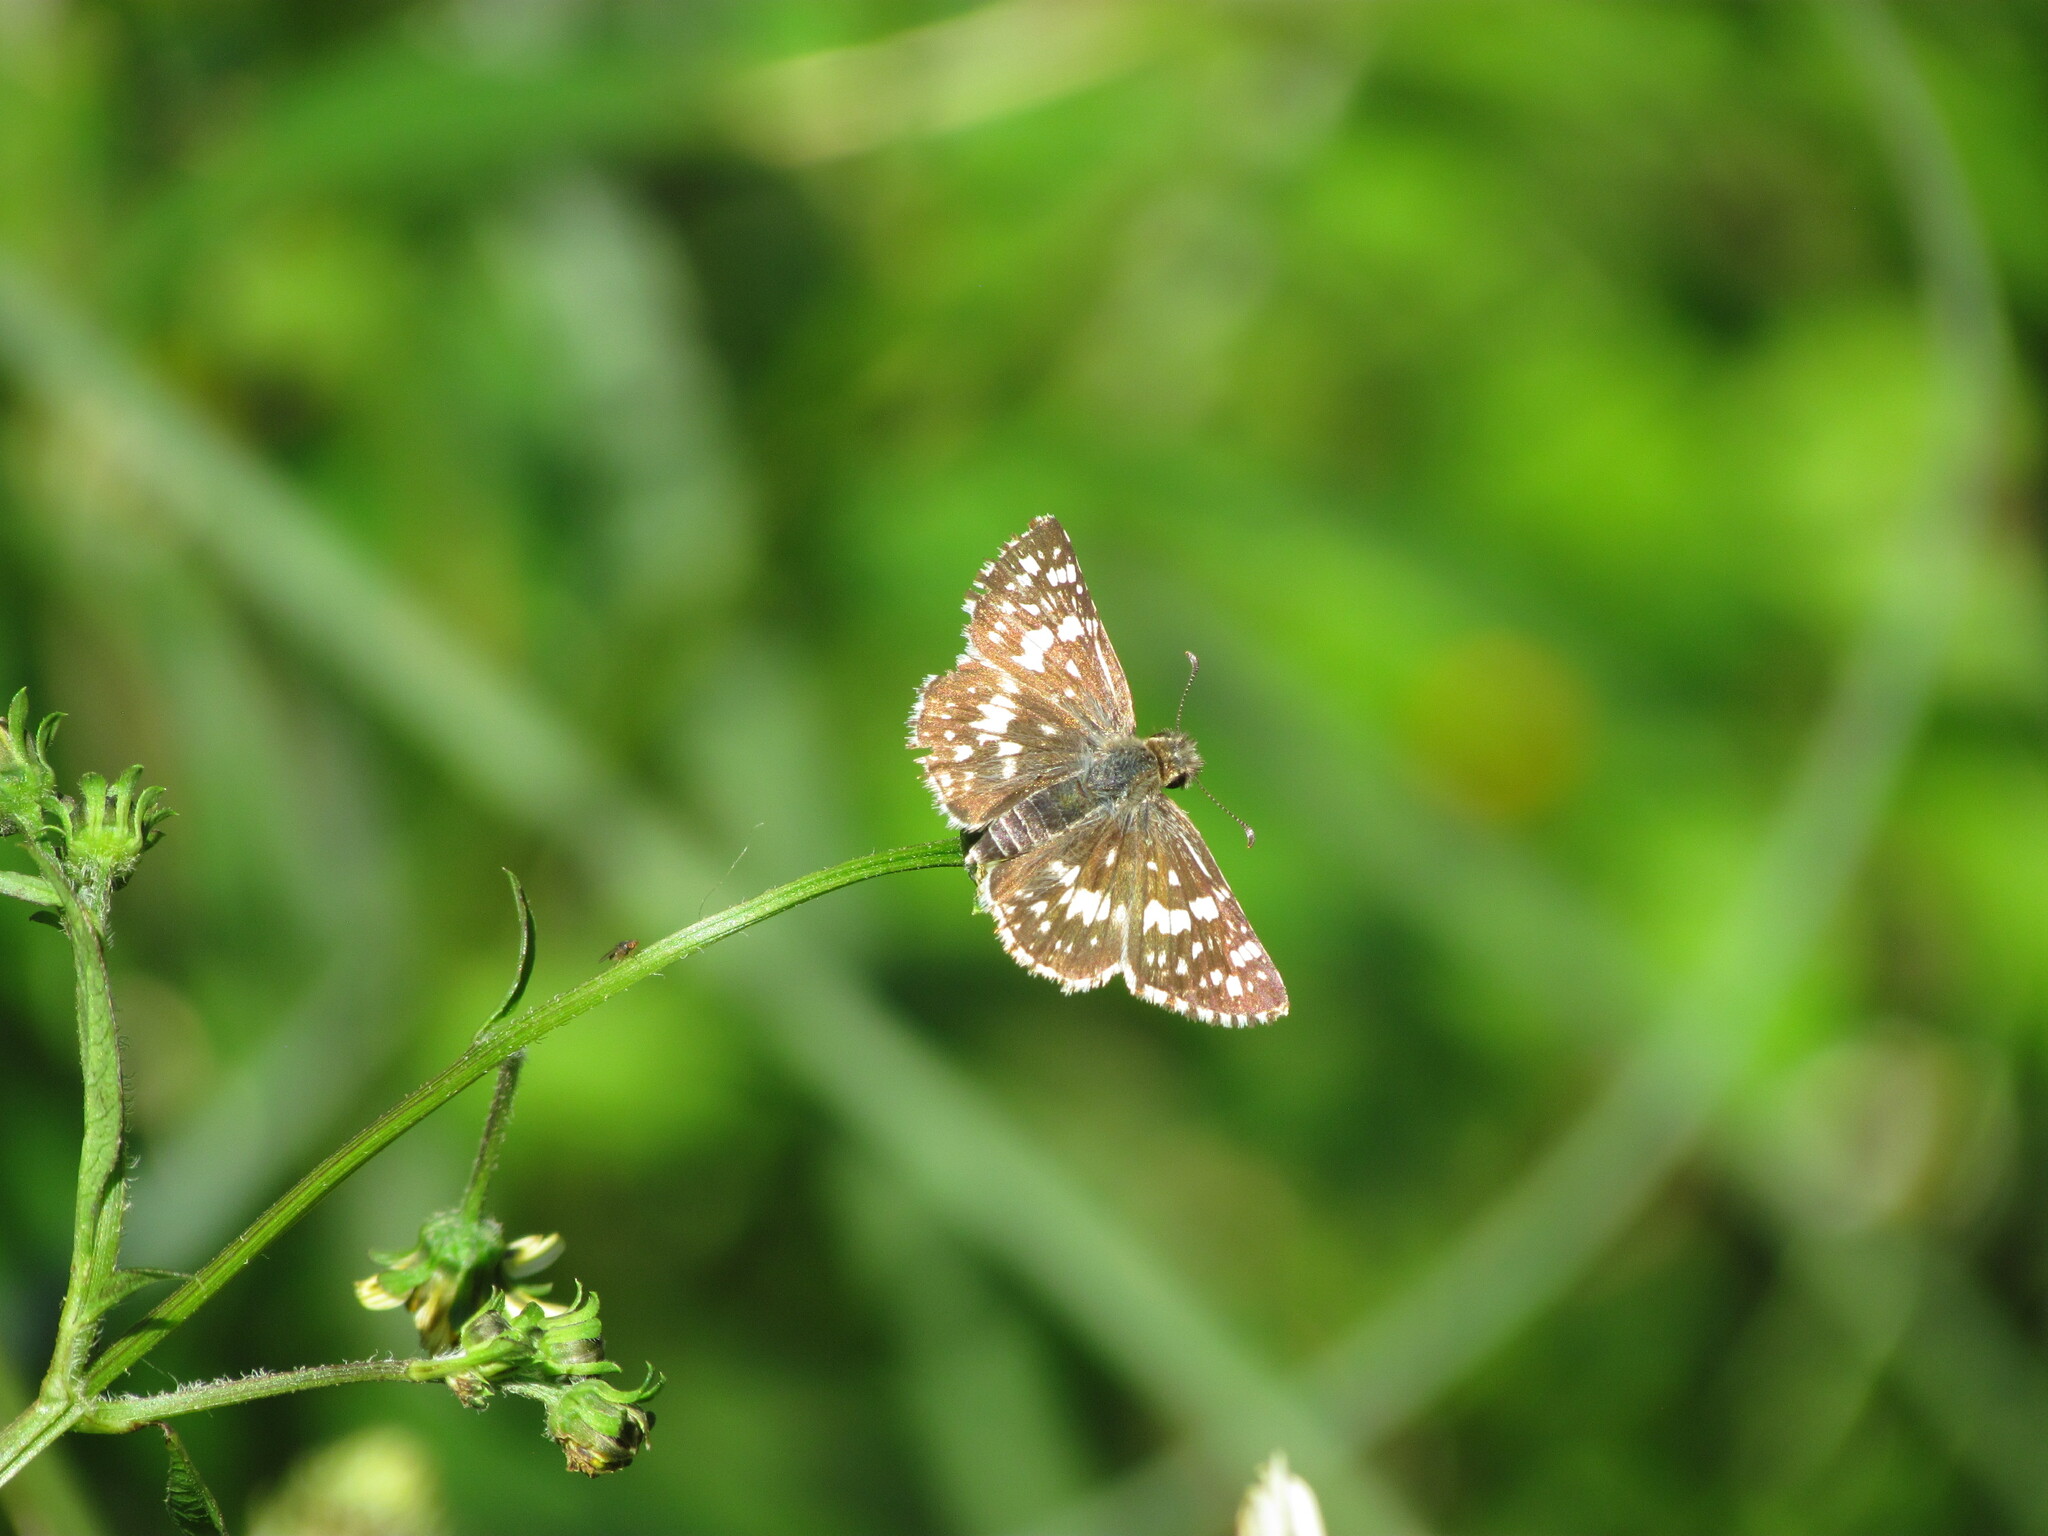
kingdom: Animalia
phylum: Arthropoda
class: Insecta
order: Lepidoptera
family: Hesperiidae
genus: Burnsius
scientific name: Burnsius orcynoides
